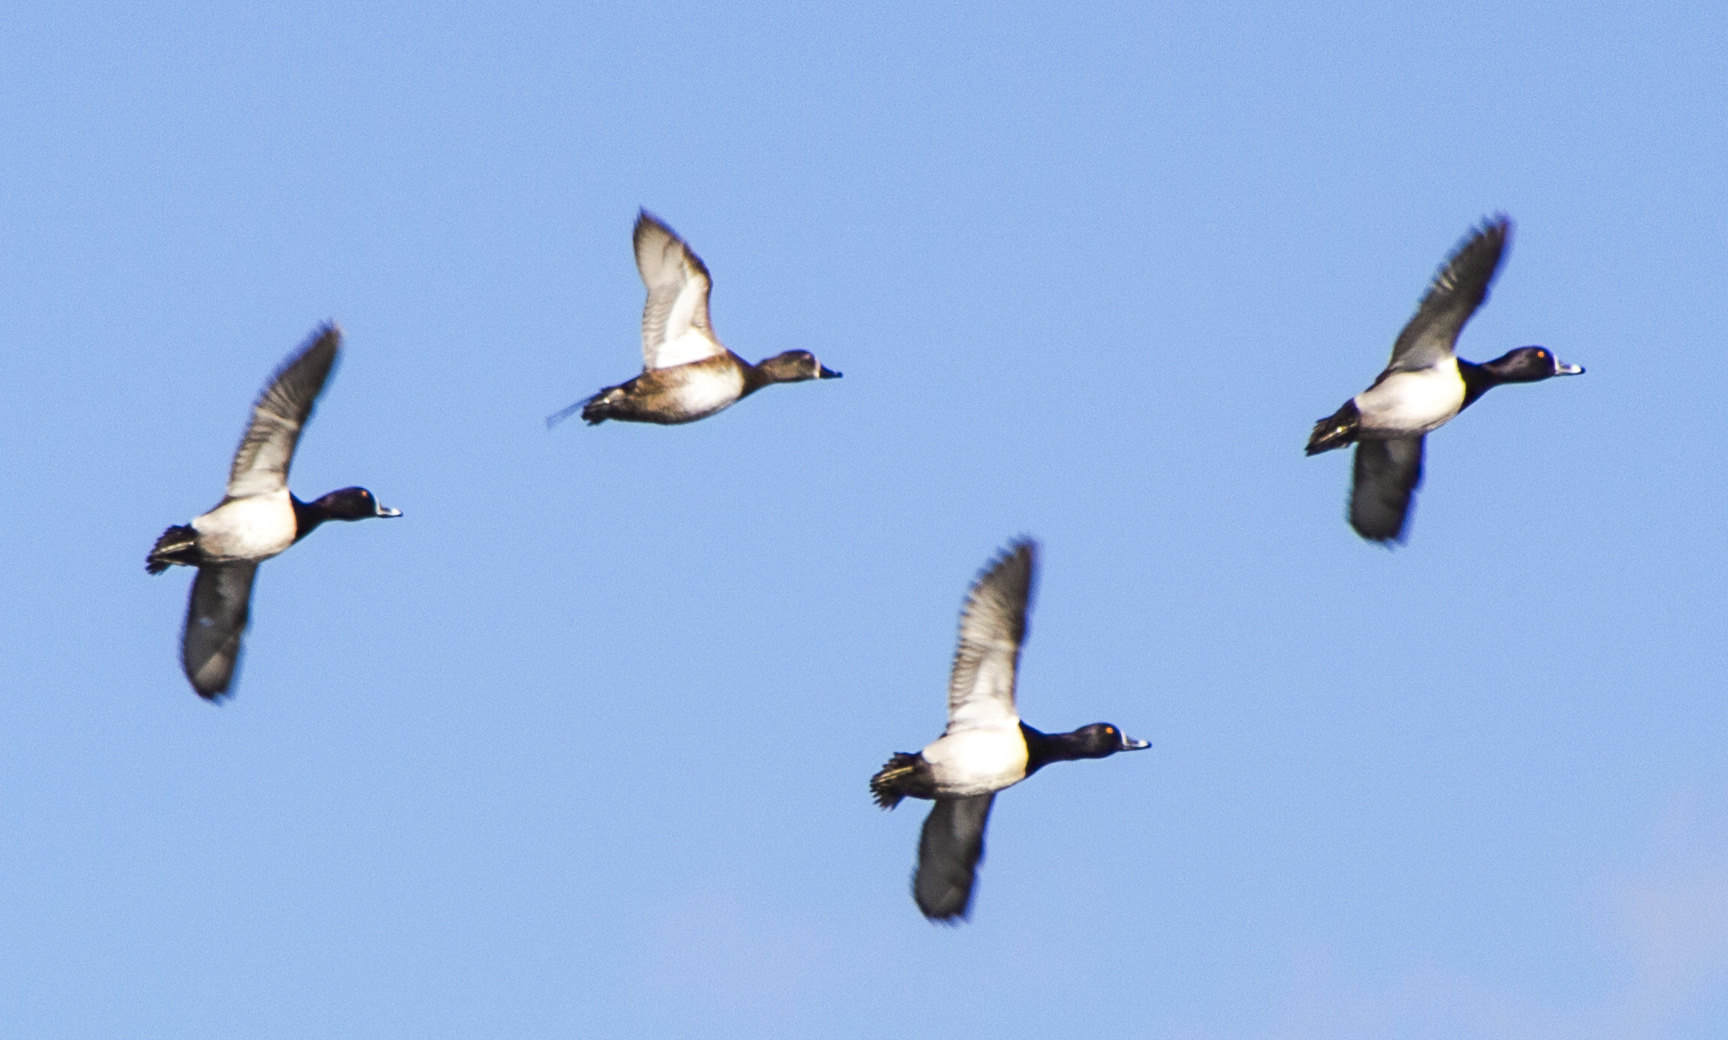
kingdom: Animalia
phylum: Chordata
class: Aves
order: Anseriformes
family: Anatidae
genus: Aythya
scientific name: Aythya collaris
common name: Ring-necked duck
